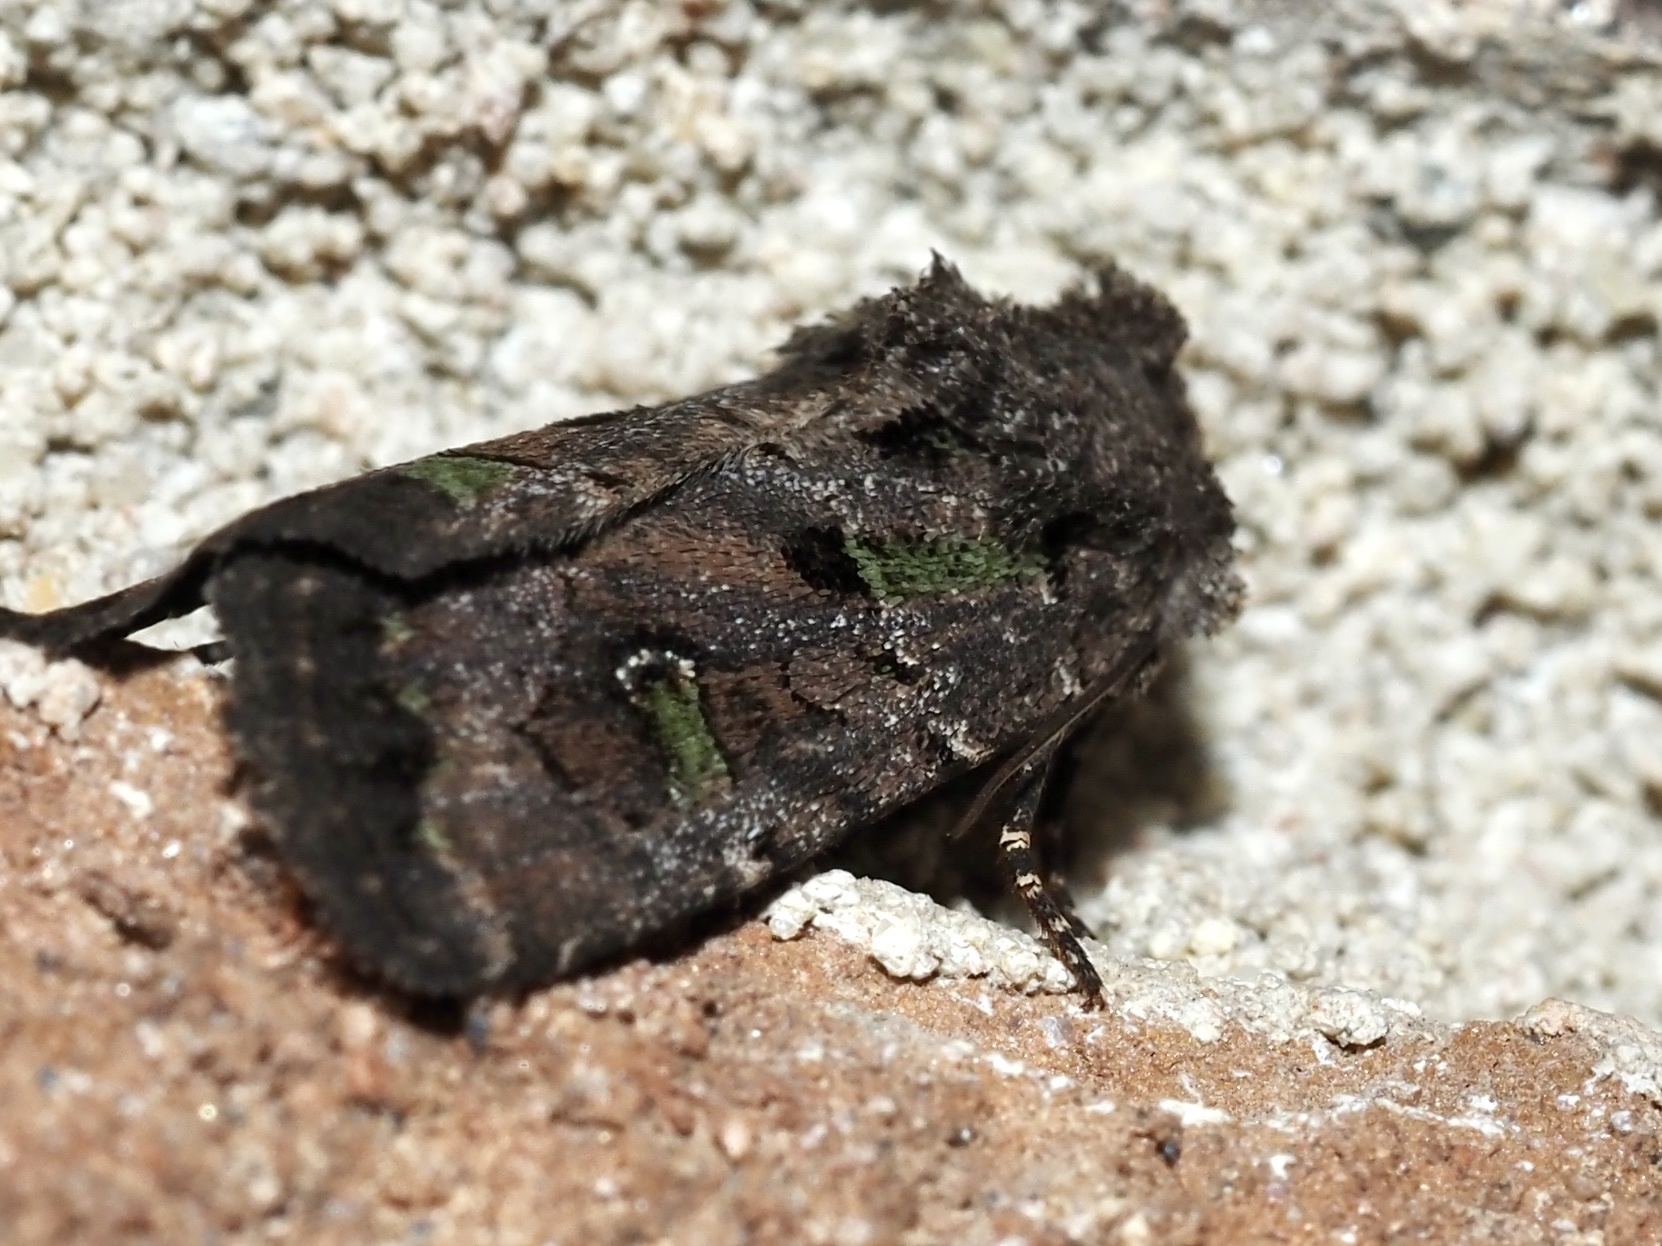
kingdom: Animalia
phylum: Arthropoda
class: Insecta
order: Lepidoptera
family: Noctuidae
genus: Lacinipolia
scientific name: Lacinipolia renigera
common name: Kidney-spotted minor
